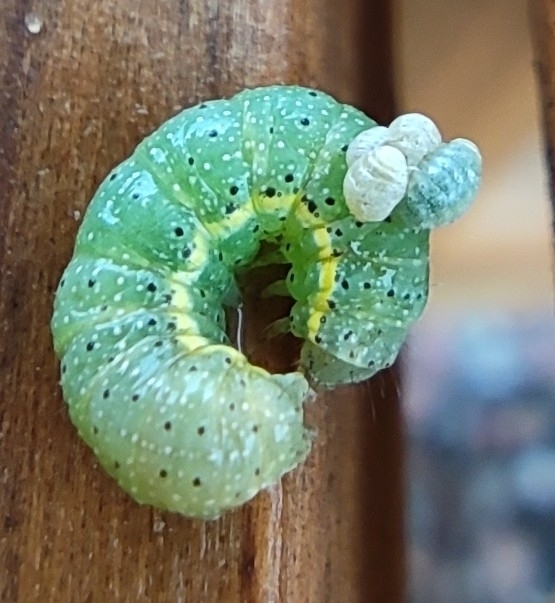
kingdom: Animalia
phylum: Arthropoda
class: Insecta
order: Lepidoptera
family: Noctuidae
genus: Lacanobia
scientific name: Lacanobia oleracea
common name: Bright-line brown-eye
